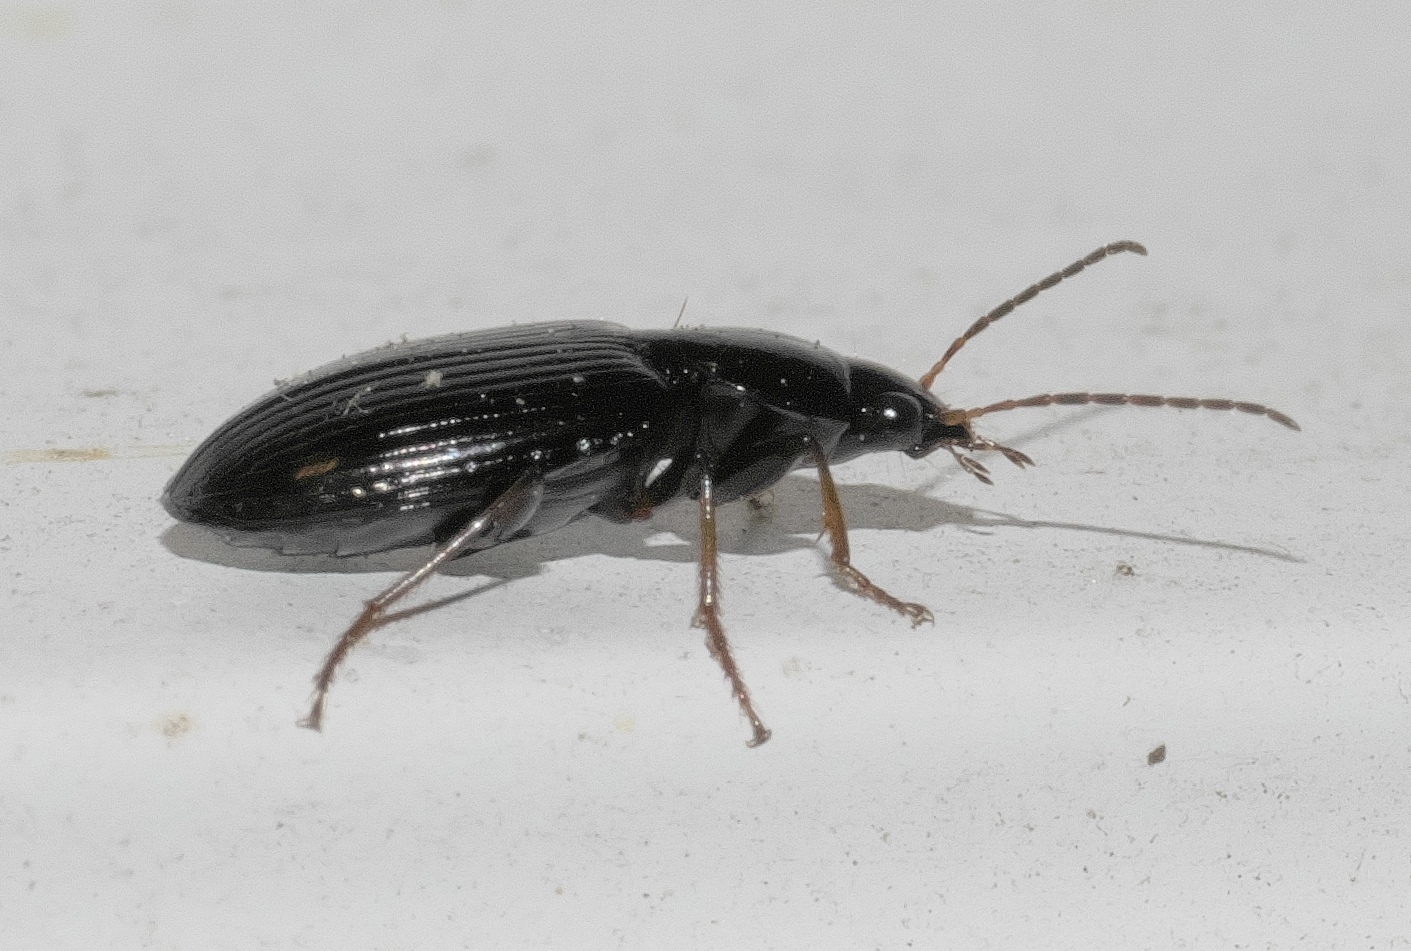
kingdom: Animalia
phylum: Arthropoda
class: Insecta
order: Coleoptera
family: Carabidae
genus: Agonum
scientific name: Agonum punctiforme
